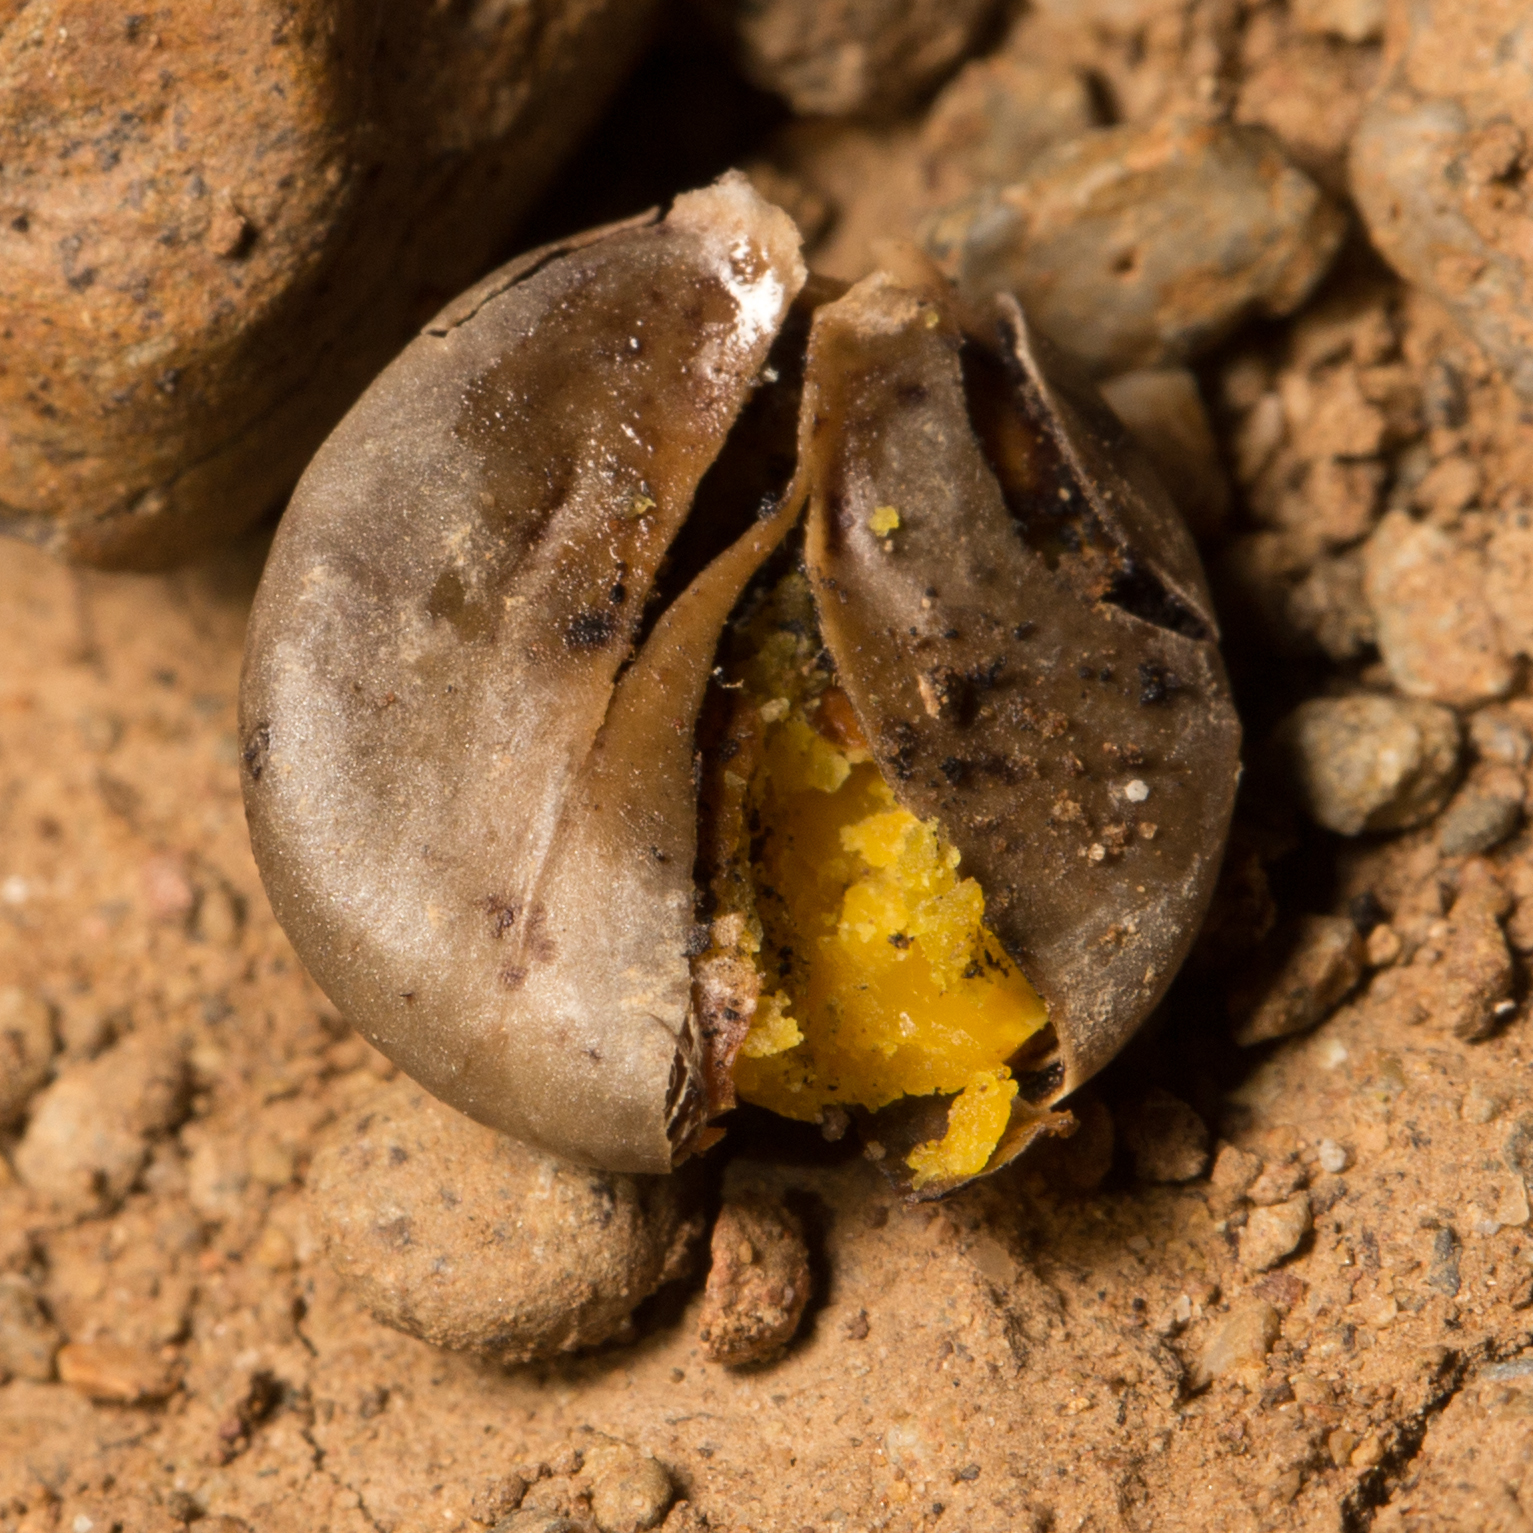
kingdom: Plantae
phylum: Tracheophyta
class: Magnoliopsida
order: Rosales
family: Rhamnaceae
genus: Frangula
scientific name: Frangula californica
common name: California buckthorn
